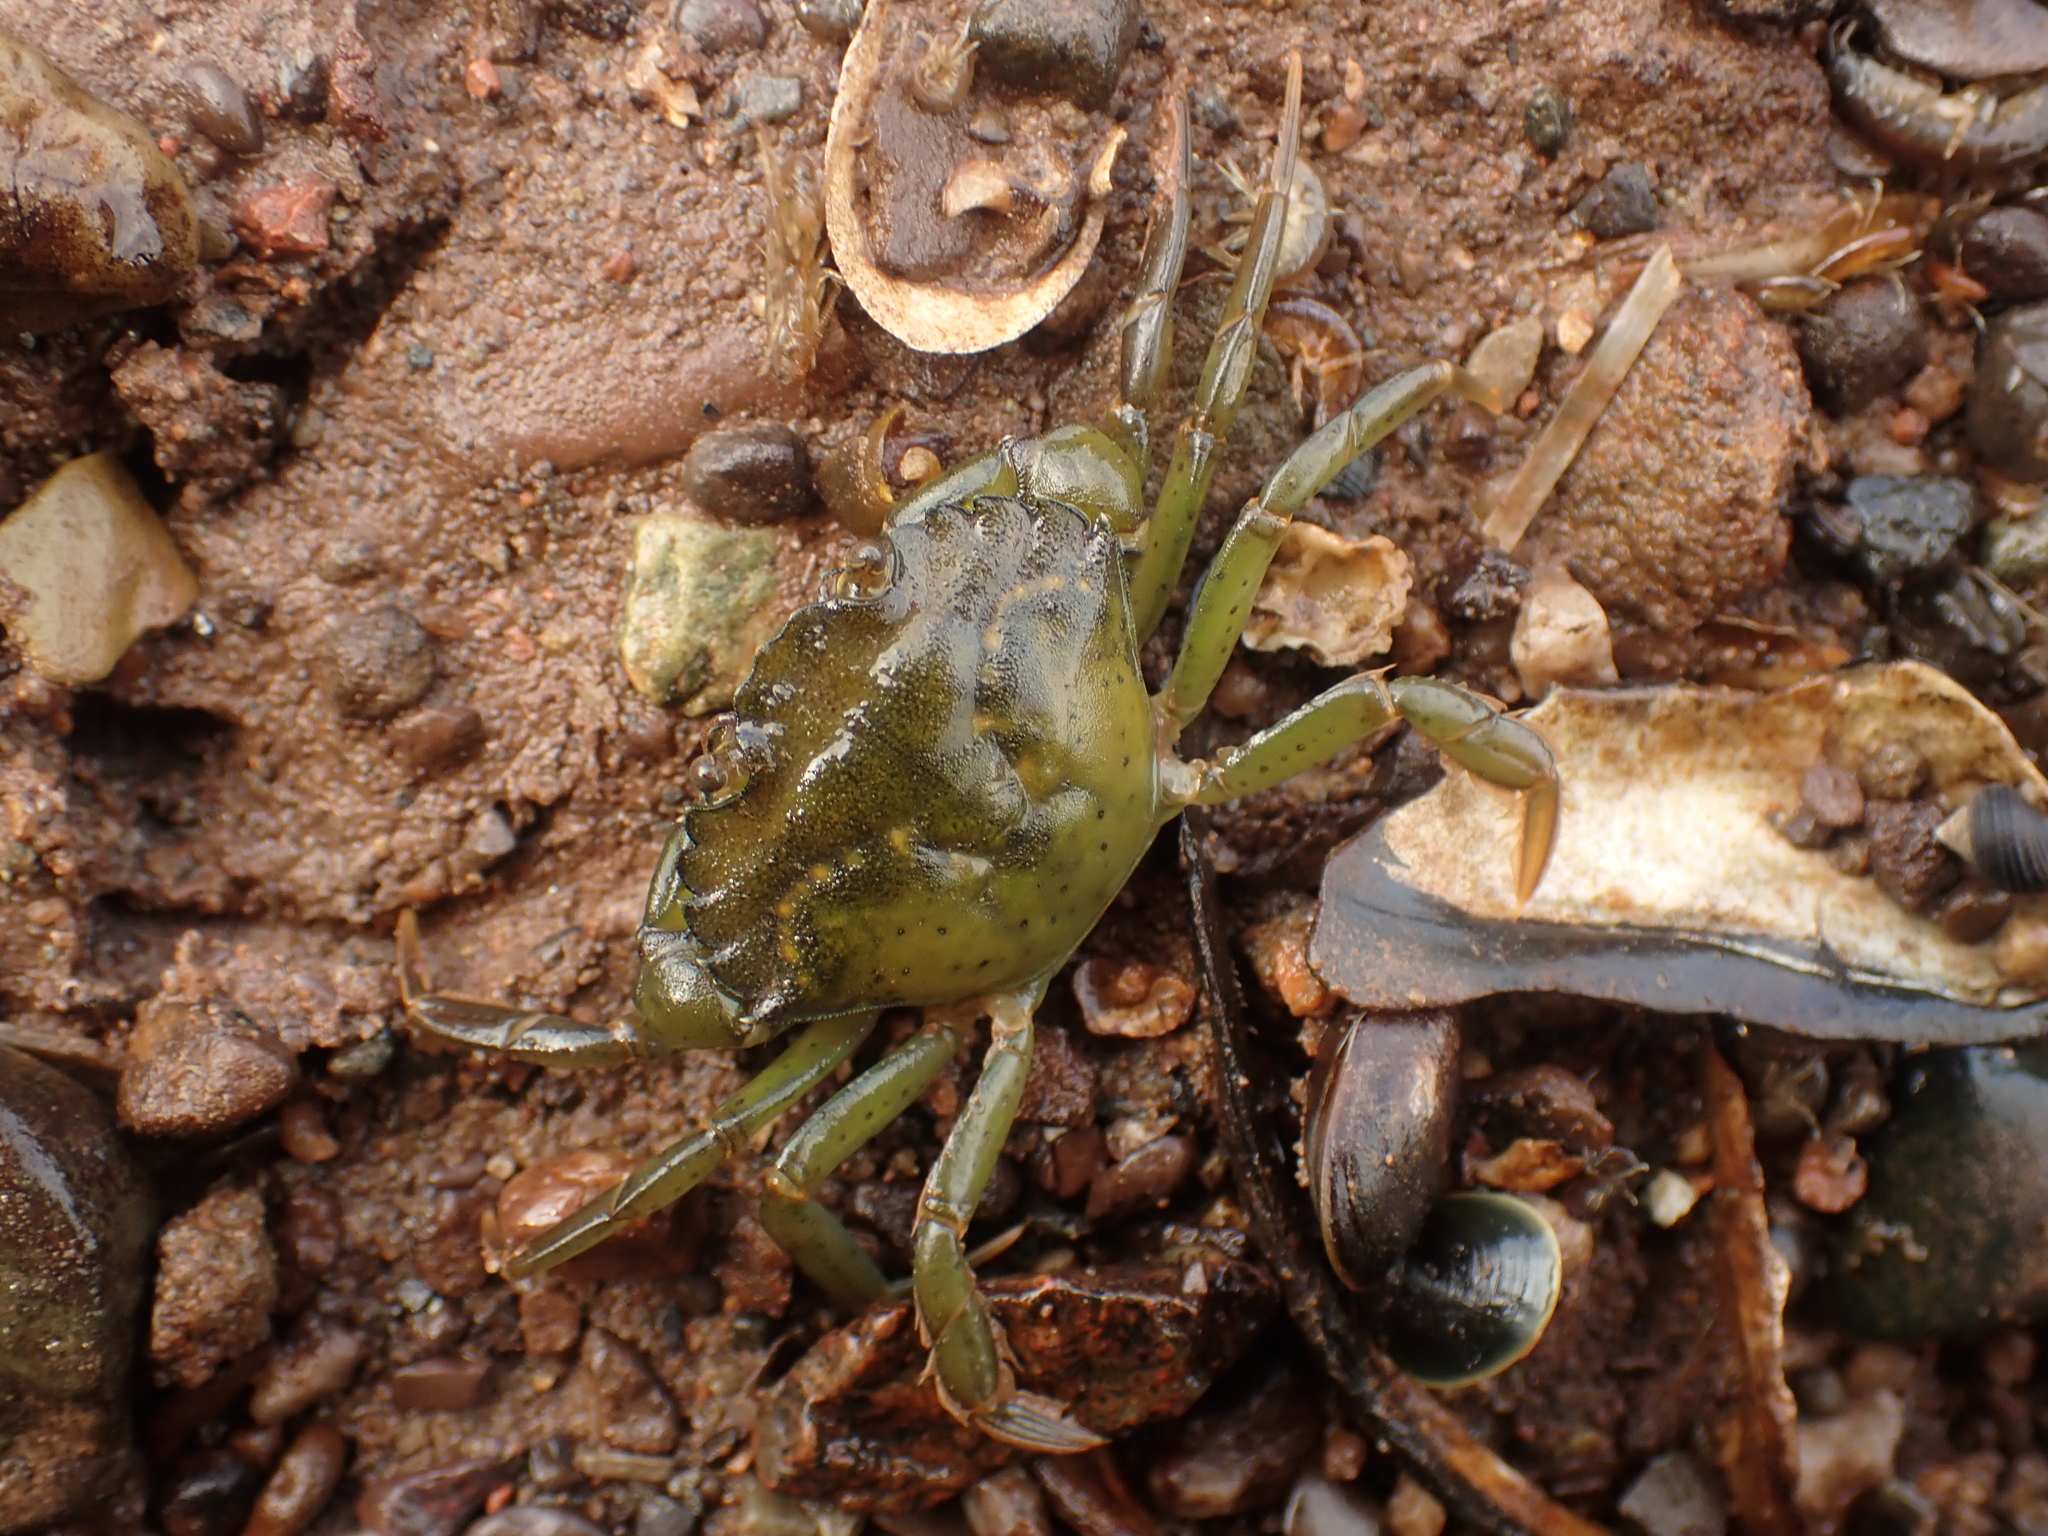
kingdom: Animalia
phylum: Arthropoda
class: Malacostraca
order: Decapoda
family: Carcinidae
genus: Carcinus
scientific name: Carcinus maenas
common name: European green crab
